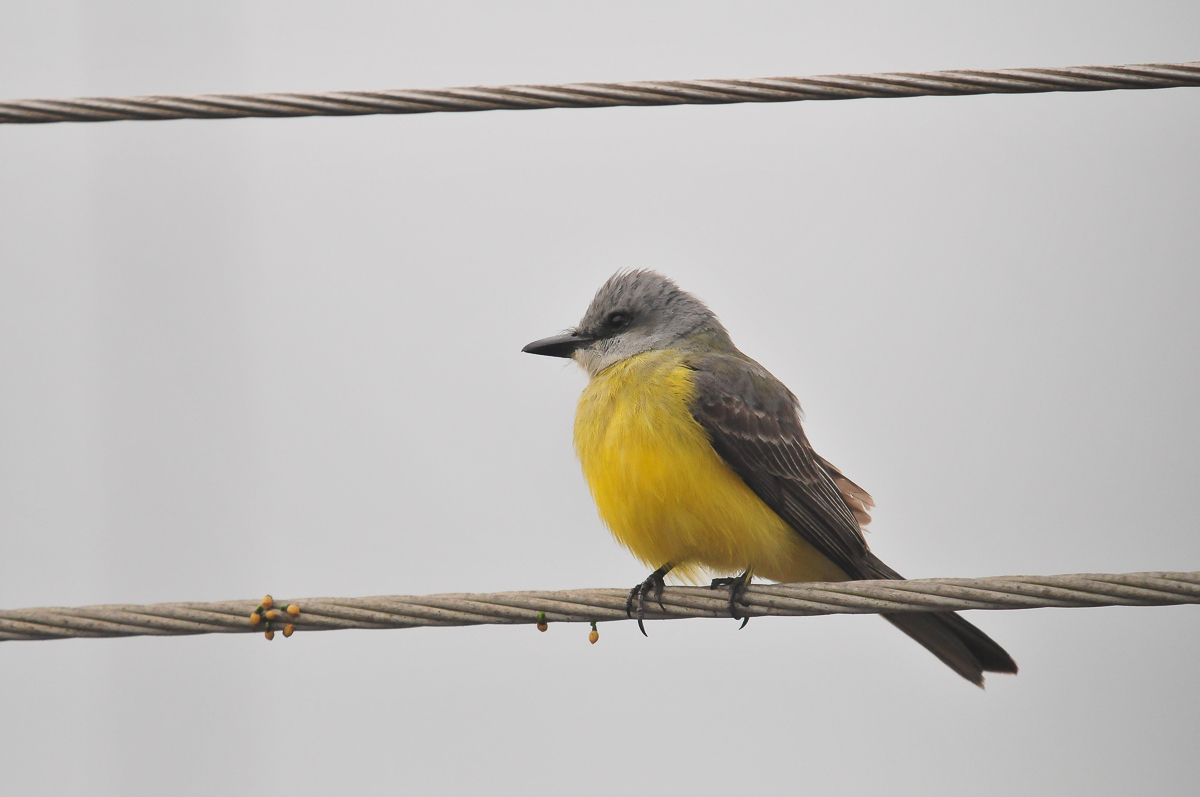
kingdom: Animalia
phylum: Chordata
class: Aves
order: Passeriformes
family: Tyrannidae
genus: Tyrannus
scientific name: Tyrannus melancholicus
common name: Tropical kingbird
